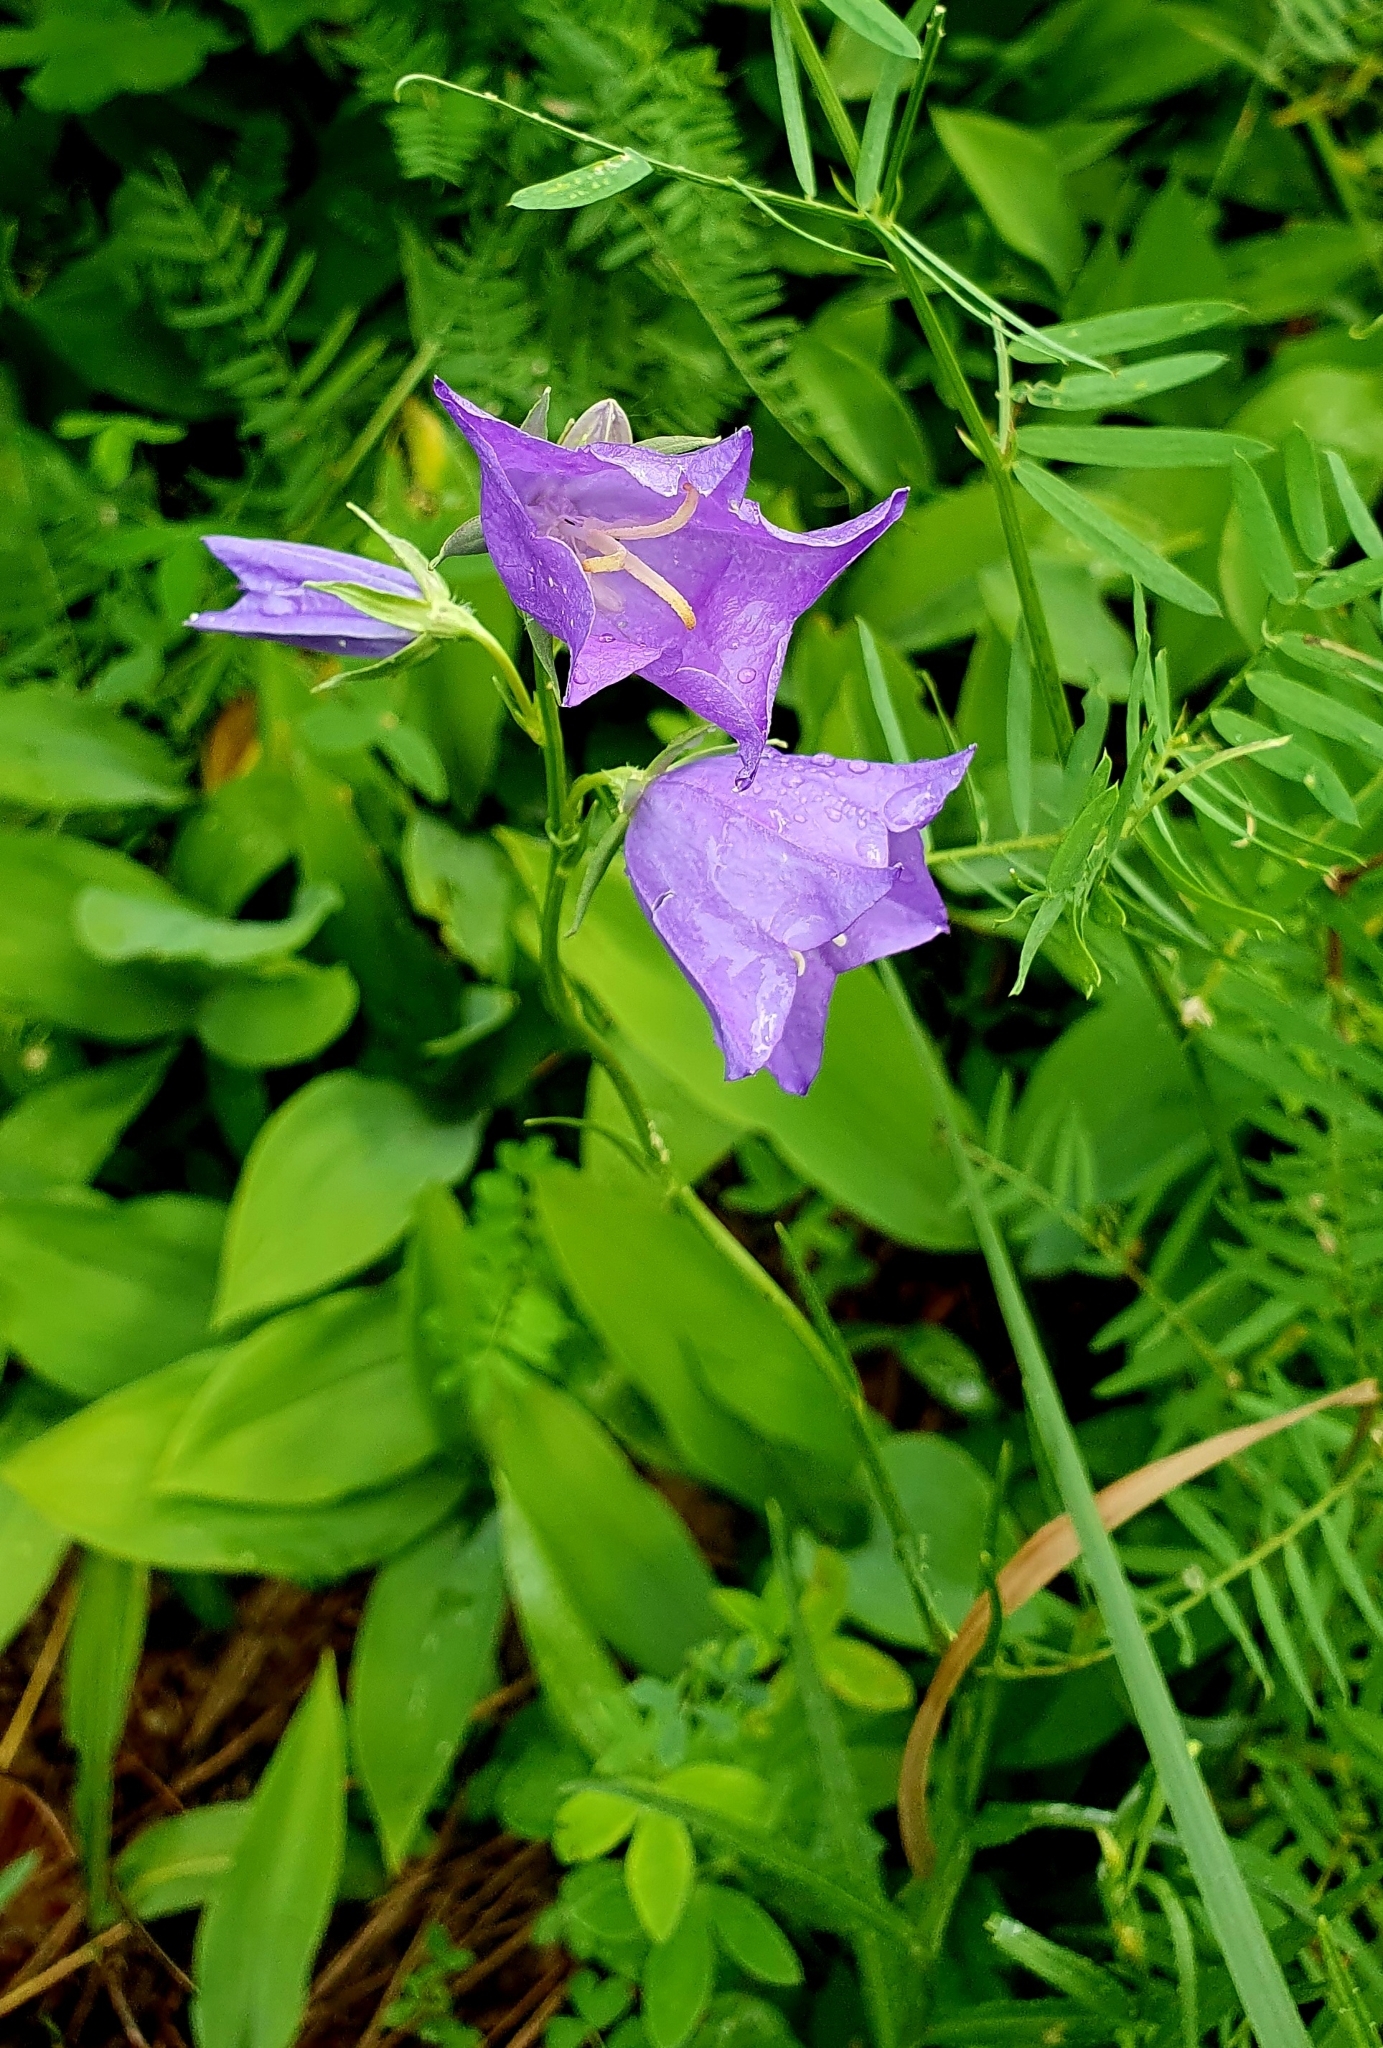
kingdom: Plantae
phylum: Tracheophyta
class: Magnoliopsida
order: Asterales
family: Campanulaceae
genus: Campanula
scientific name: Campanula persicifolia
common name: Peach-leaved bellflower
